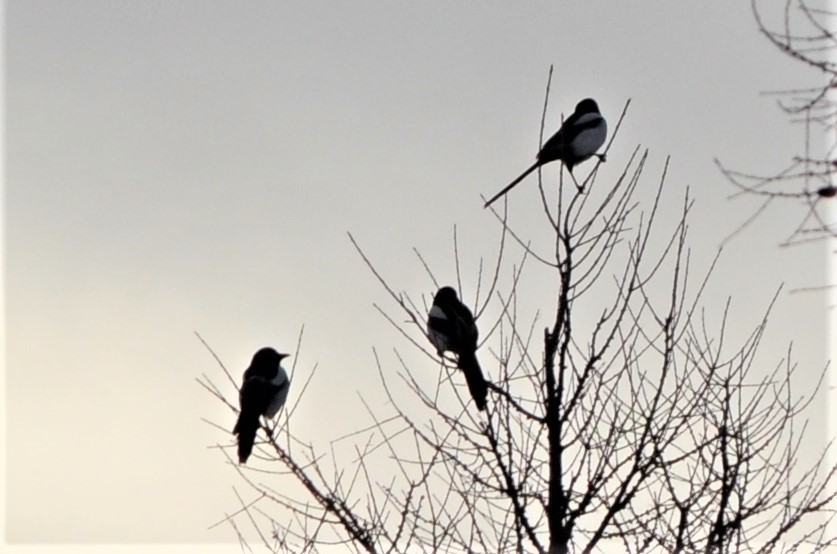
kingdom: Animalia
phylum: Chordata
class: Aves
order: Passeriformes
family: Corvidae
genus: Pica
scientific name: Pica pica
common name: Eurasian magpie
